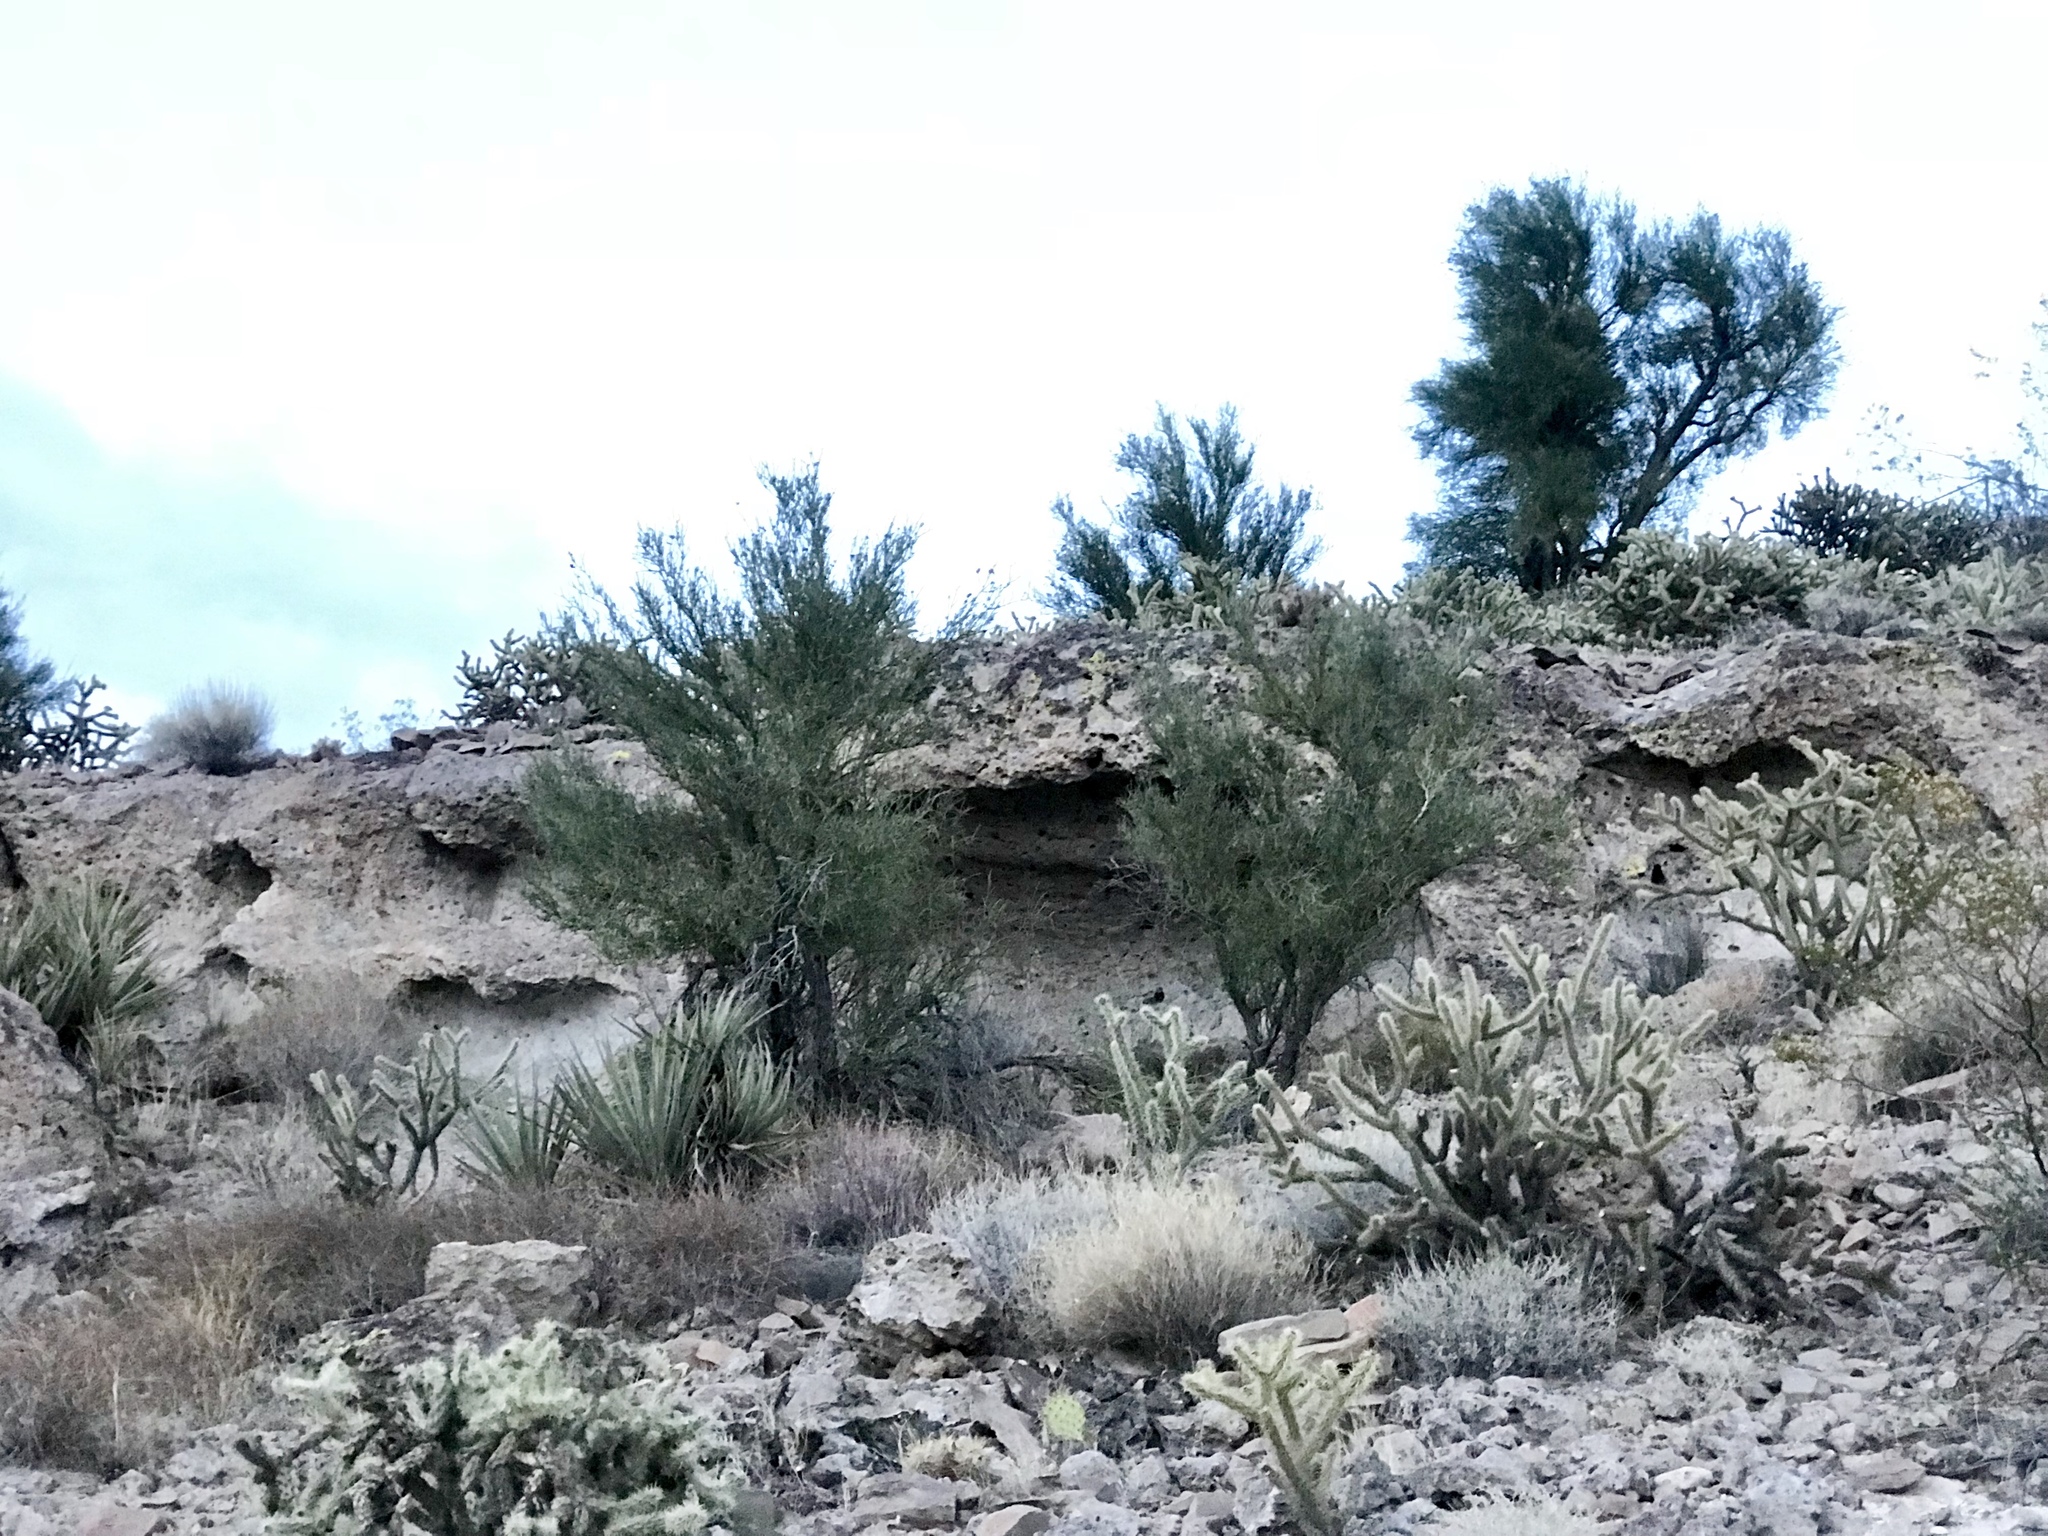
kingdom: Plantae
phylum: Tracheophyta
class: Magnoliopsida
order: Celastrales
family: Celastraceae
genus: Canotia
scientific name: Canotia holacantha
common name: Crucifixion thorns
